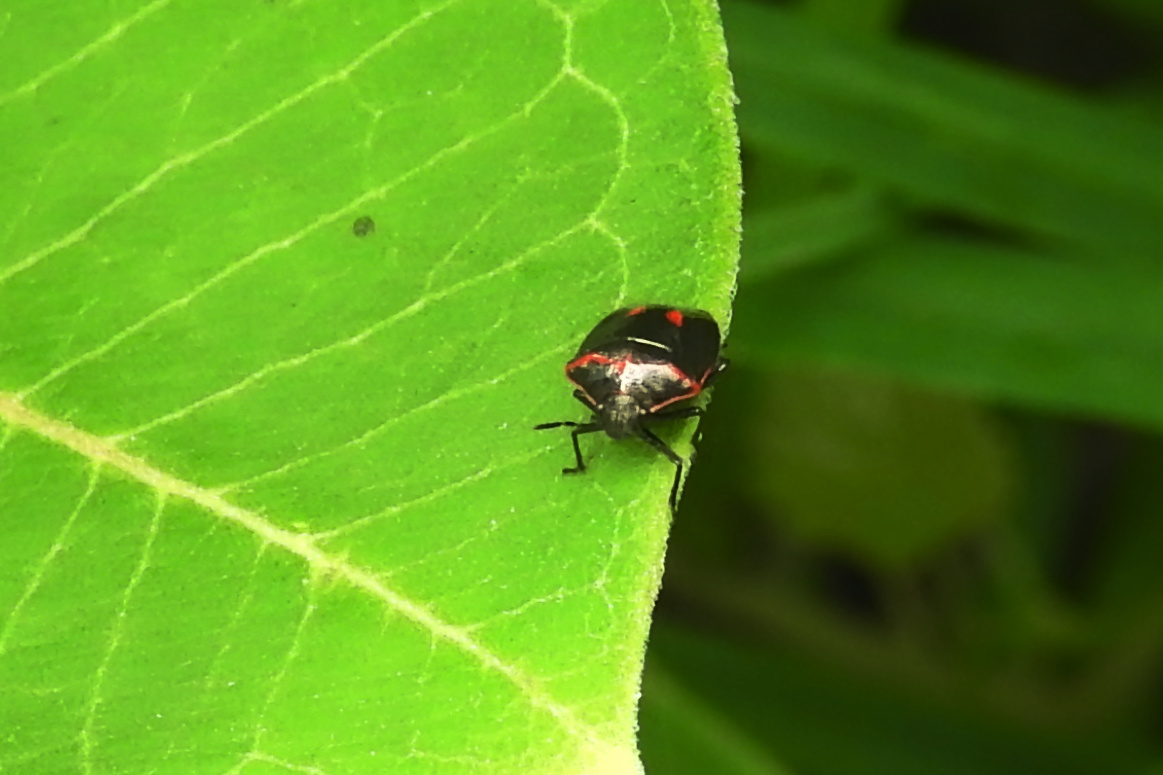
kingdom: Animalia
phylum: Arthropoda
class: Insecta
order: Hemiptera
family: Pentatomidae
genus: Cosmopepla
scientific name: Cosmopepla lintneriana
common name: Twice-stabbed stink bug
